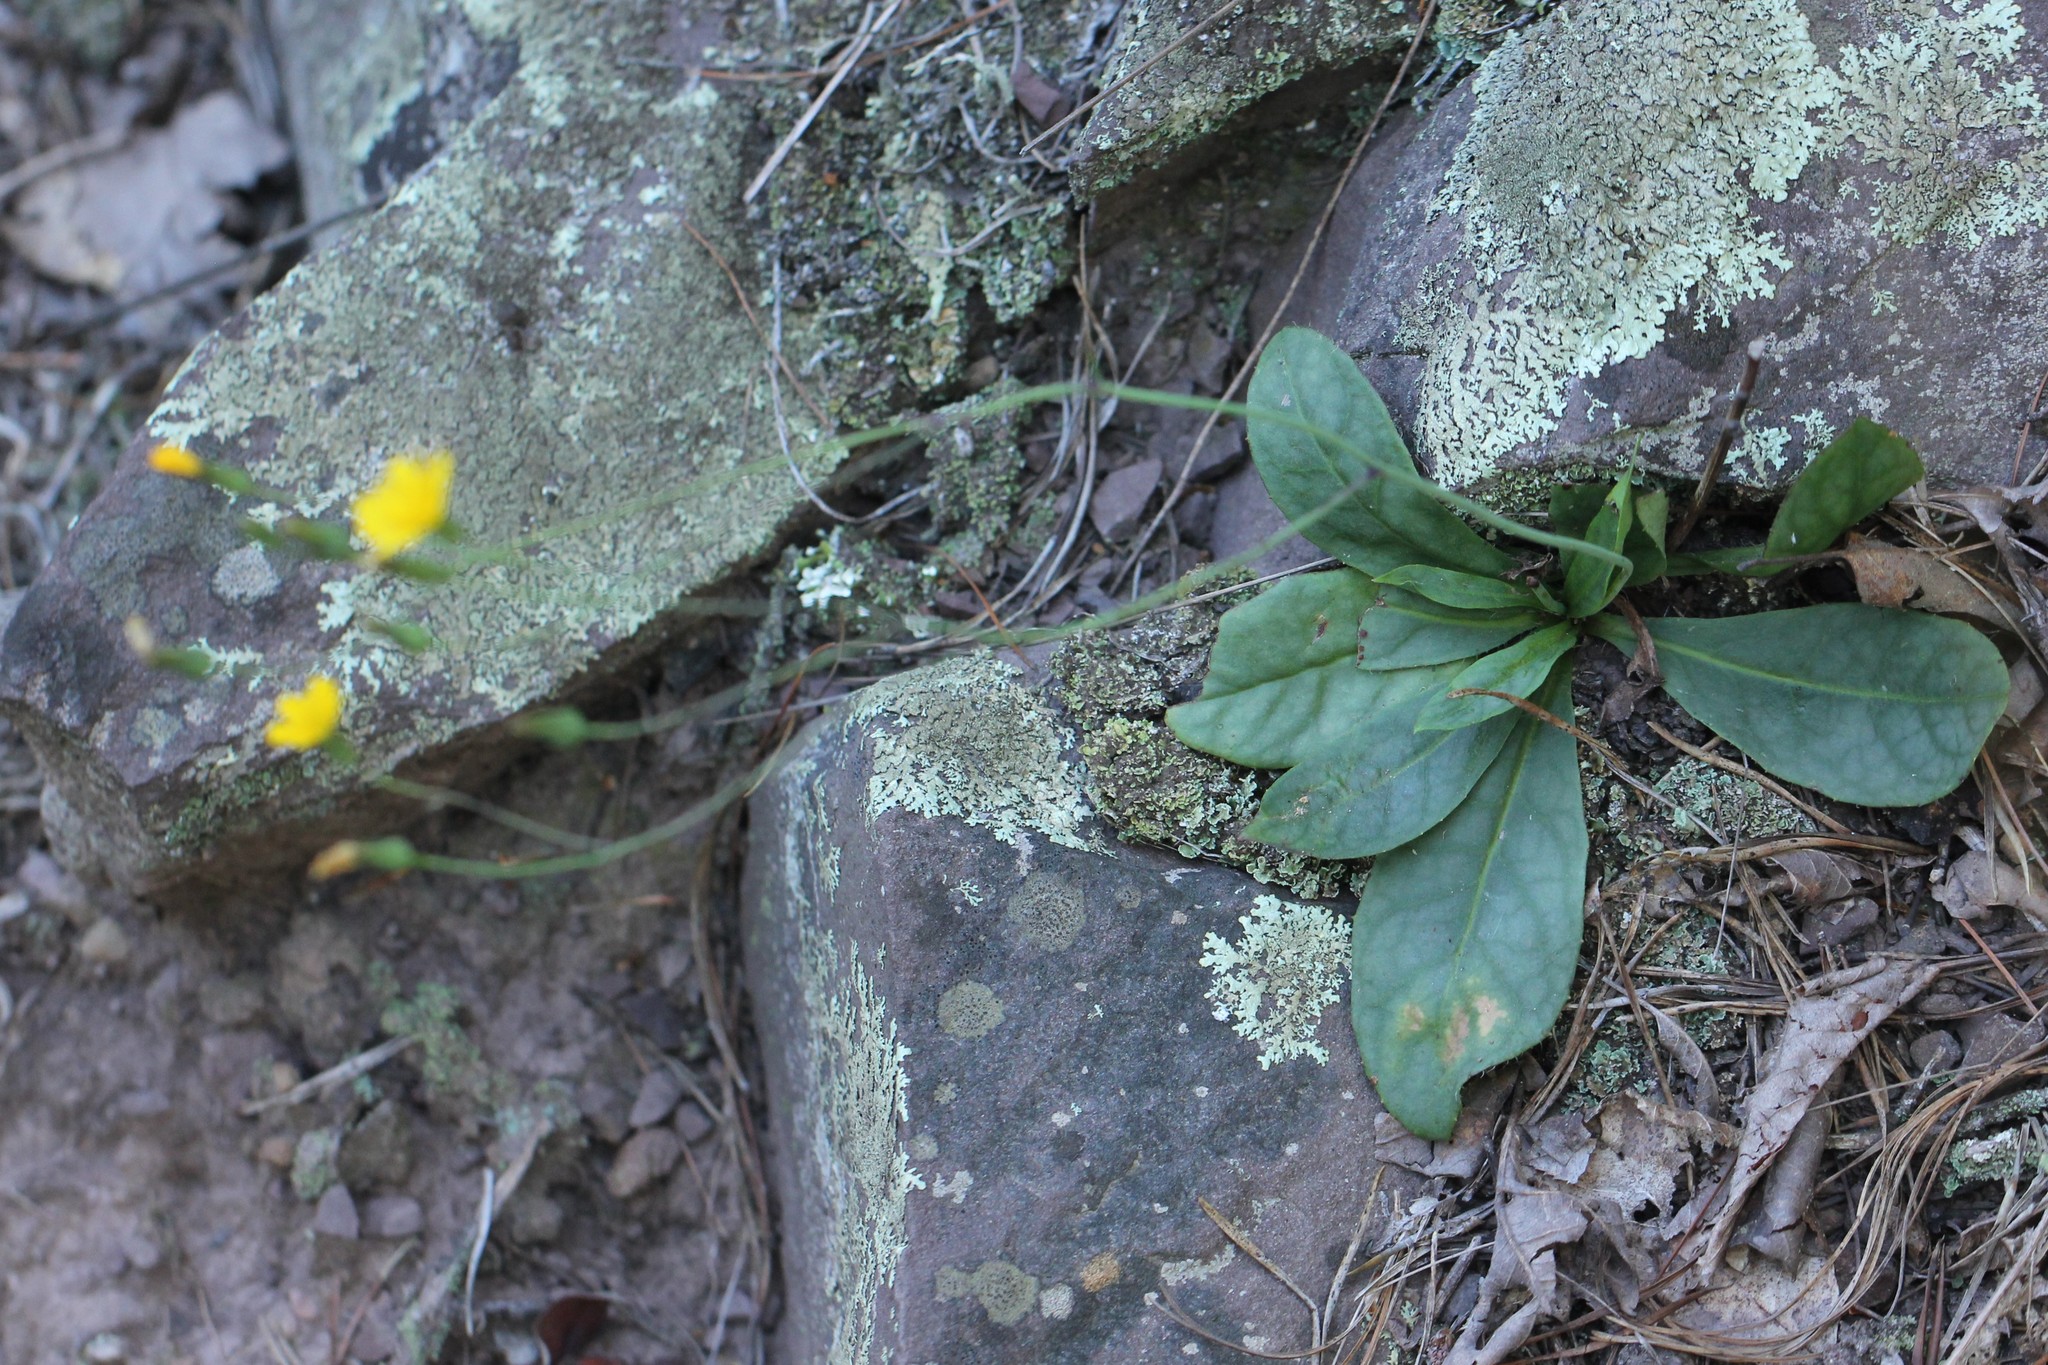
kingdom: Plantae
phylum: Tracheophyta
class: Magnoliopsida
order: Asterales
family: Asteraceae
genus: Hieracium
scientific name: Hieracium venosum
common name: Rattlesnake hawkweed
